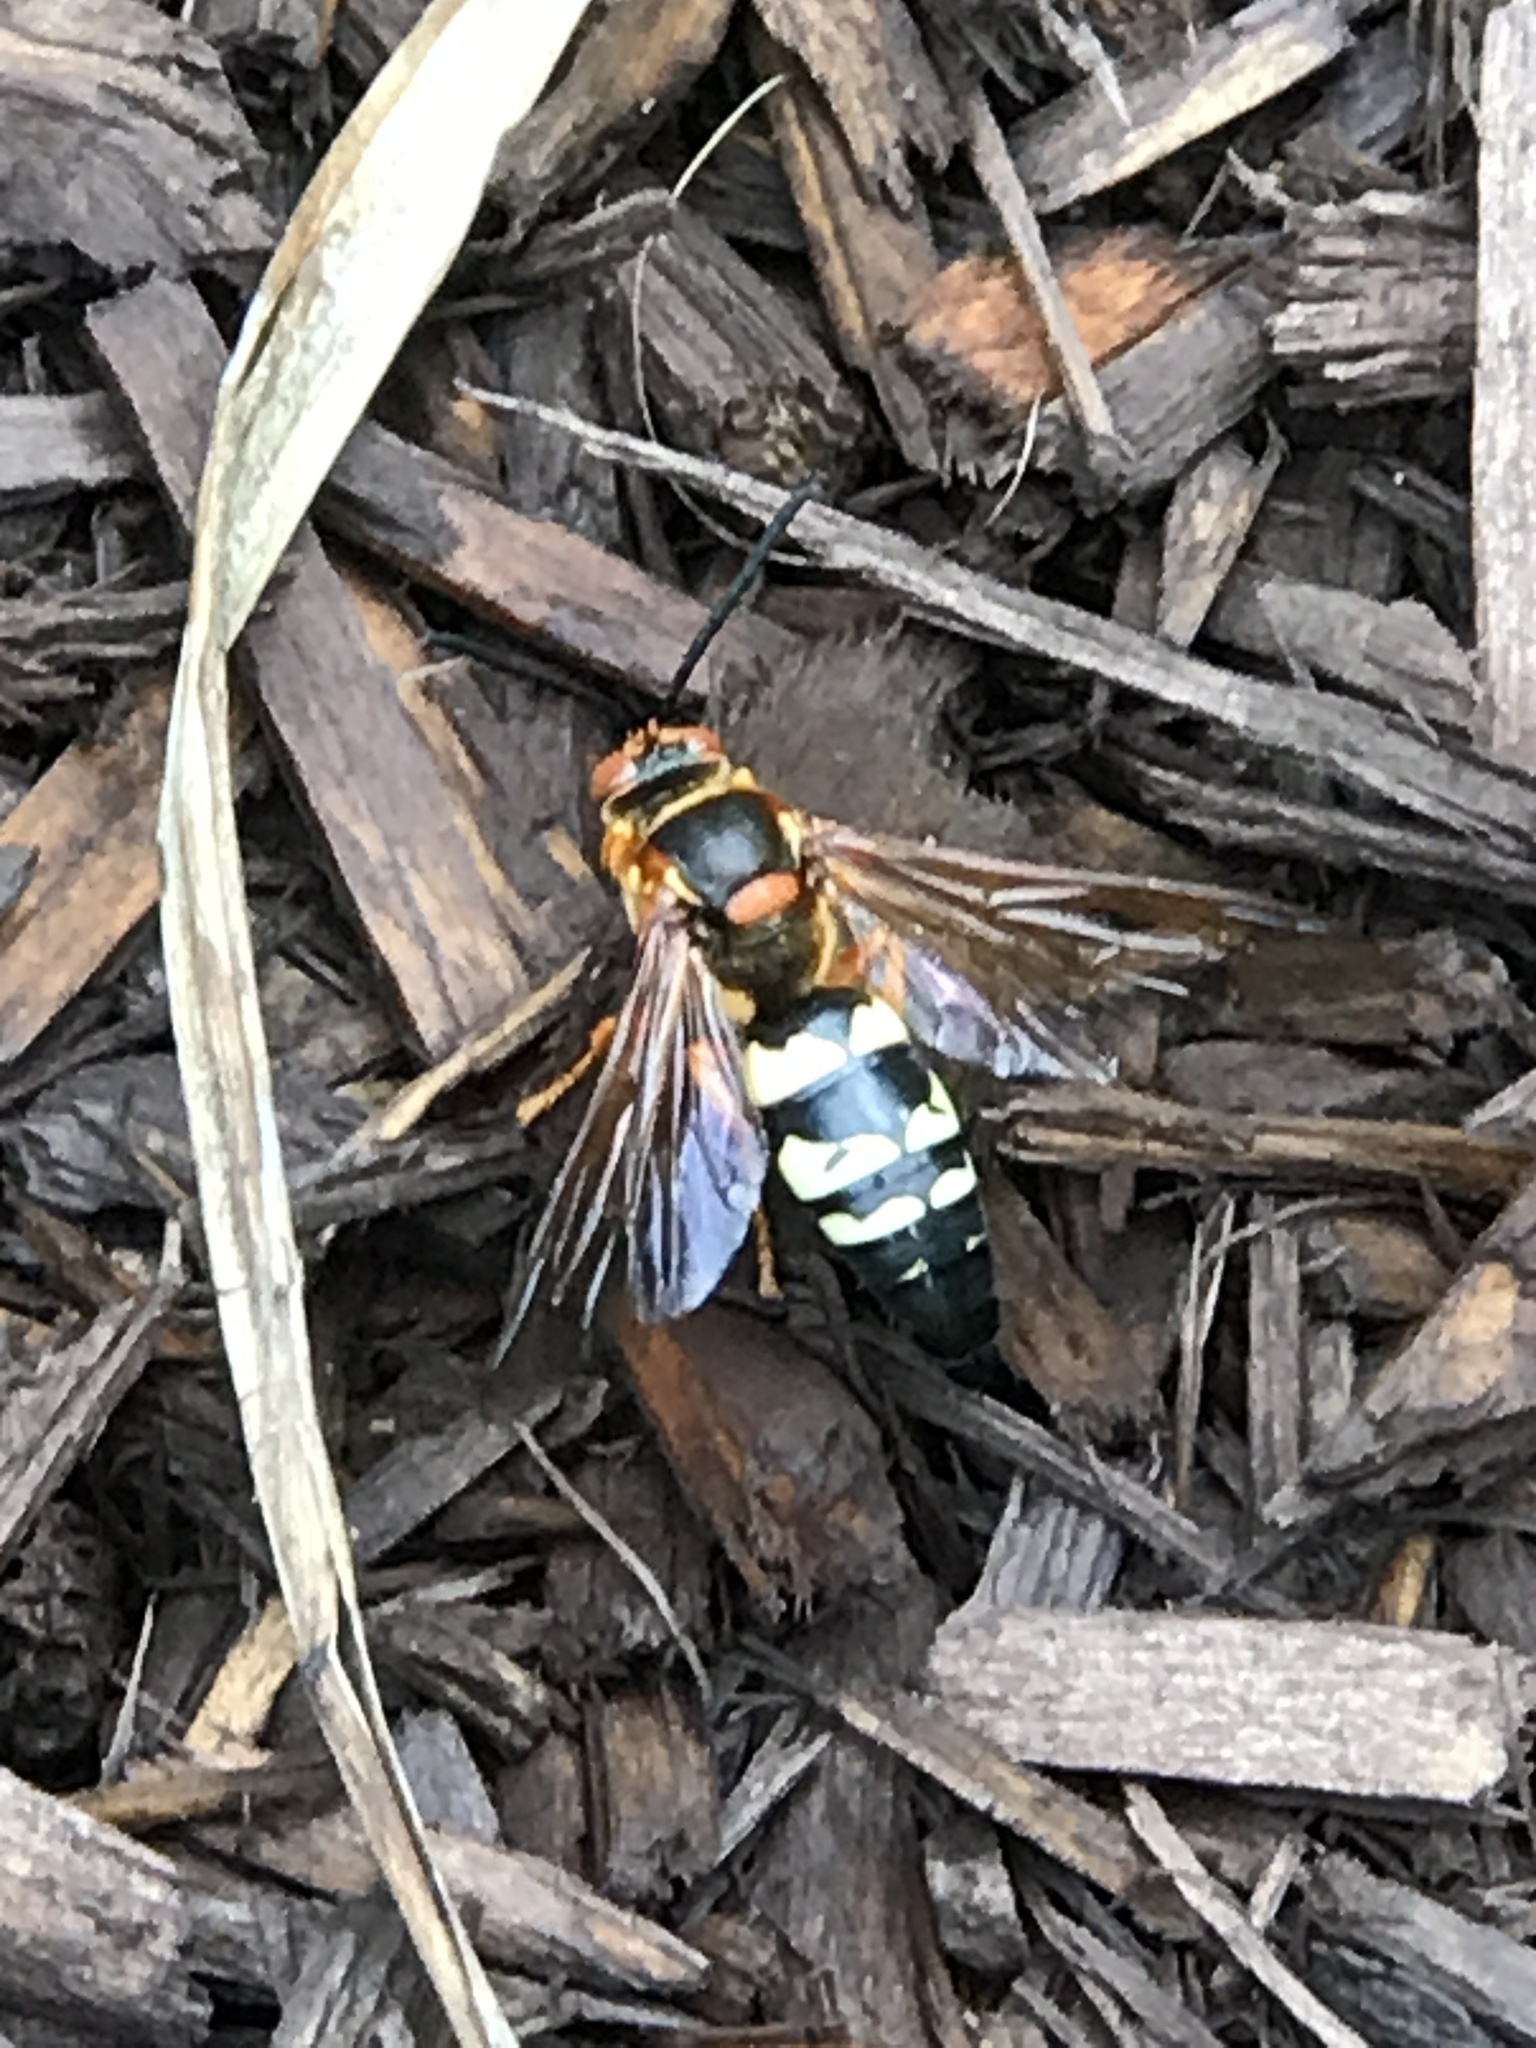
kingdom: Animalia
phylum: Arthropoda
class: Insecta
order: Hymenoptera
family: Crabronidae
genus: Sphecius
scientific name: Sphecius speciosus
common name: Cicada killer
